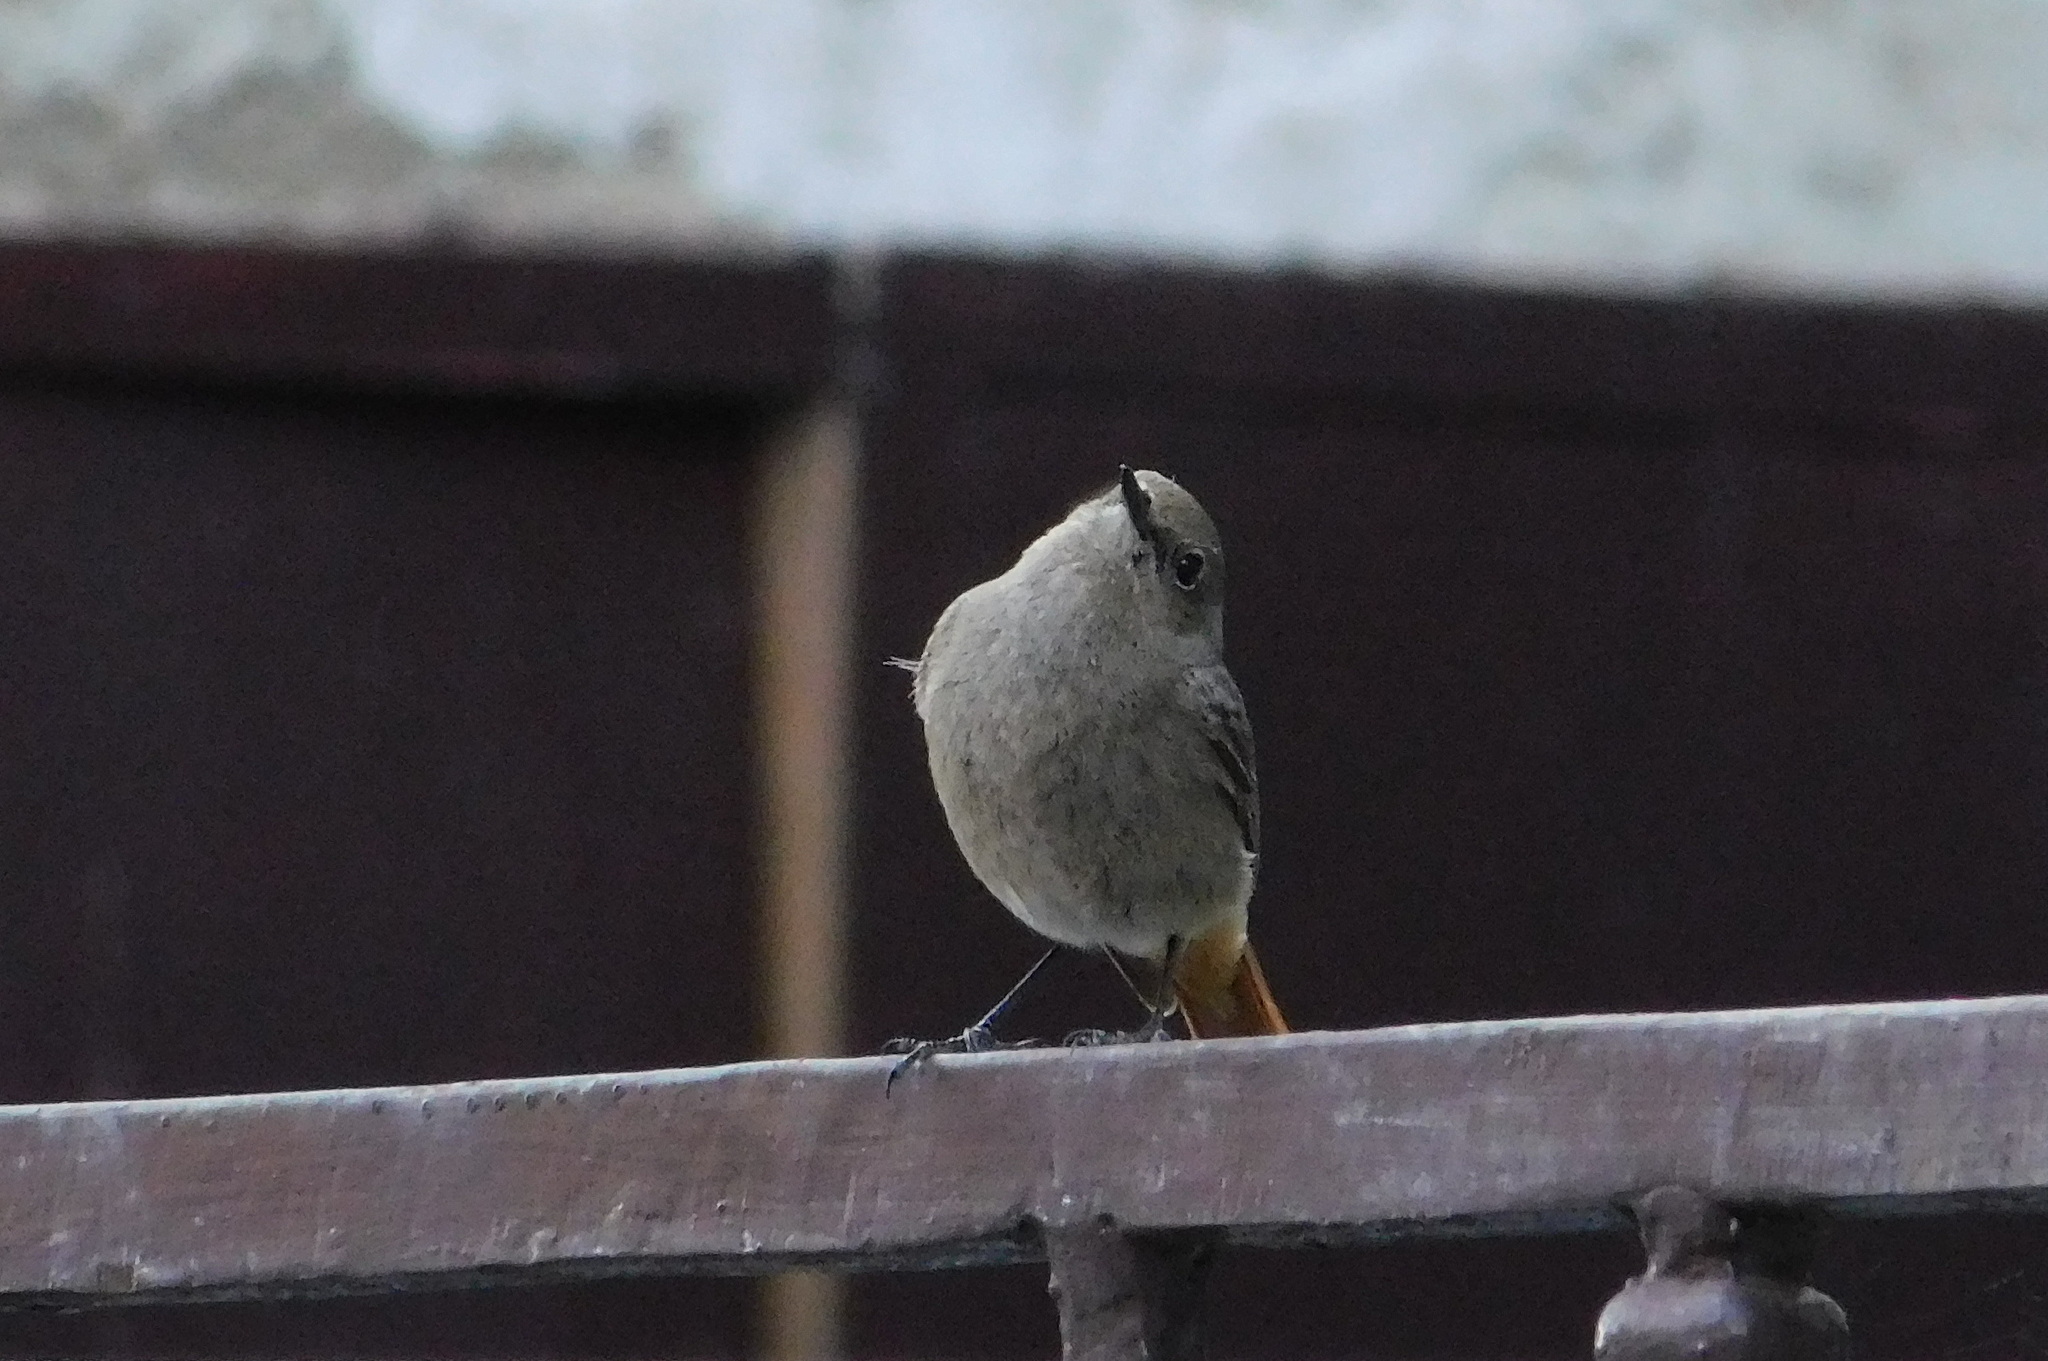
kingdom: Animalia
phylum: Chordata
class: Aves
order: Passeriformes
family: Muscicapidae
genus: Phoenicurus
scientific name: Phoenicurus ochruros
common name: Black redstart
